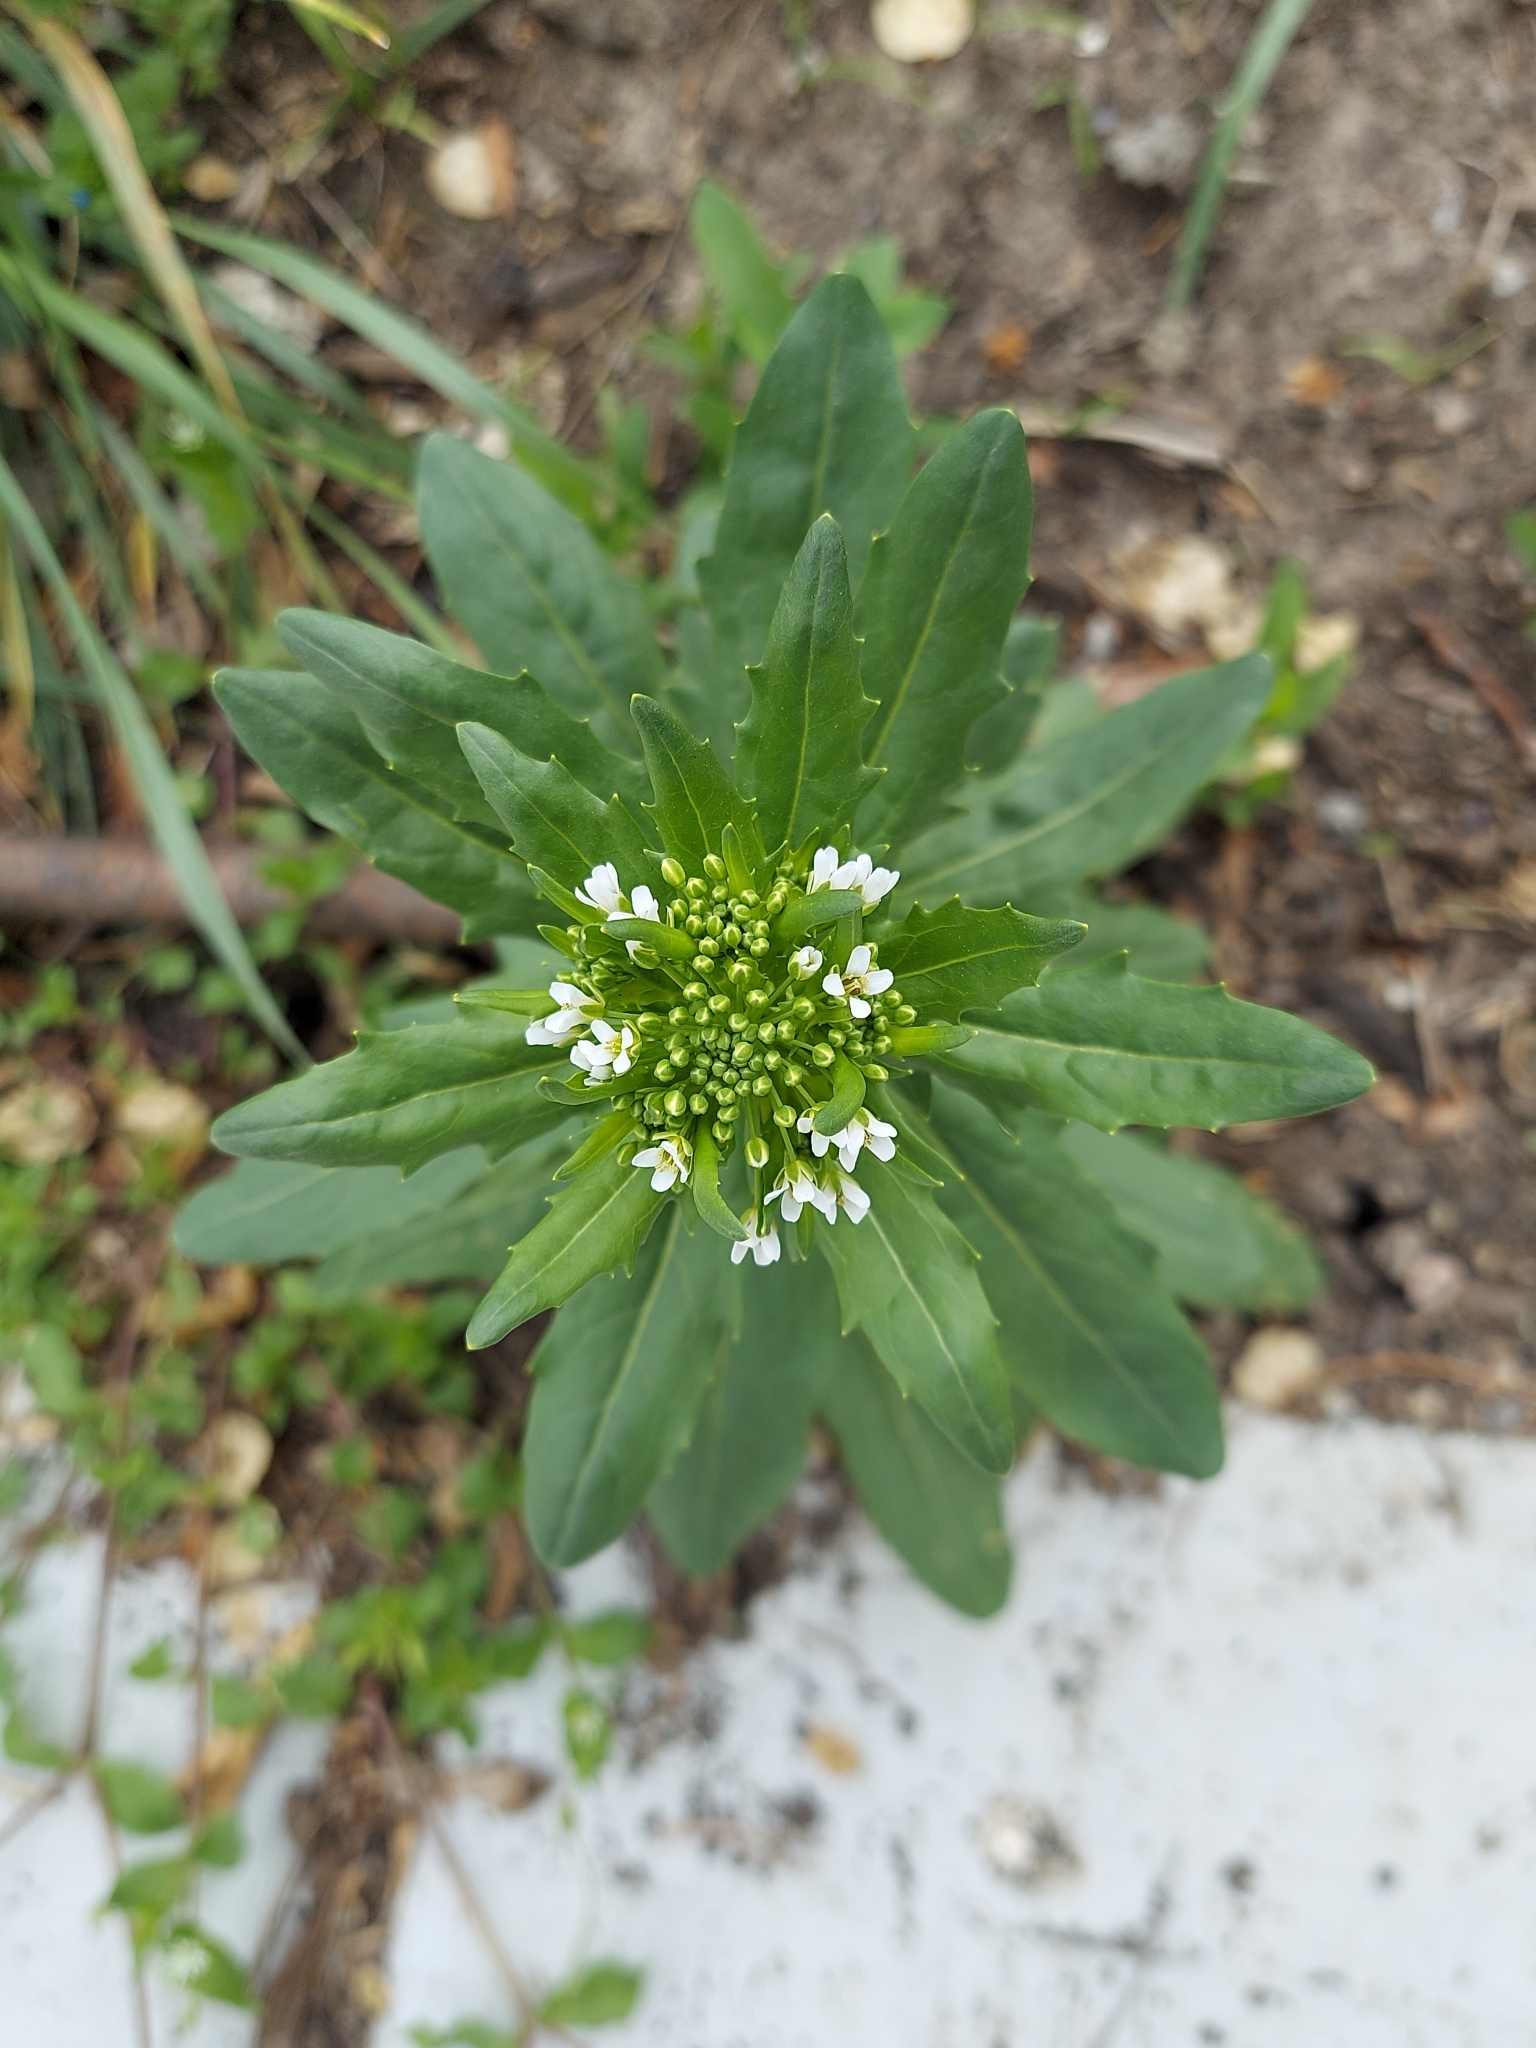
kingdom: Plantae
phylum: Tracheophyta
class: Magnoliopsida
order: Brassicales
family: Brassicaceae
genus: Thlaspi
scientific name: Thlaspi arvense
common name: Field pennycress
